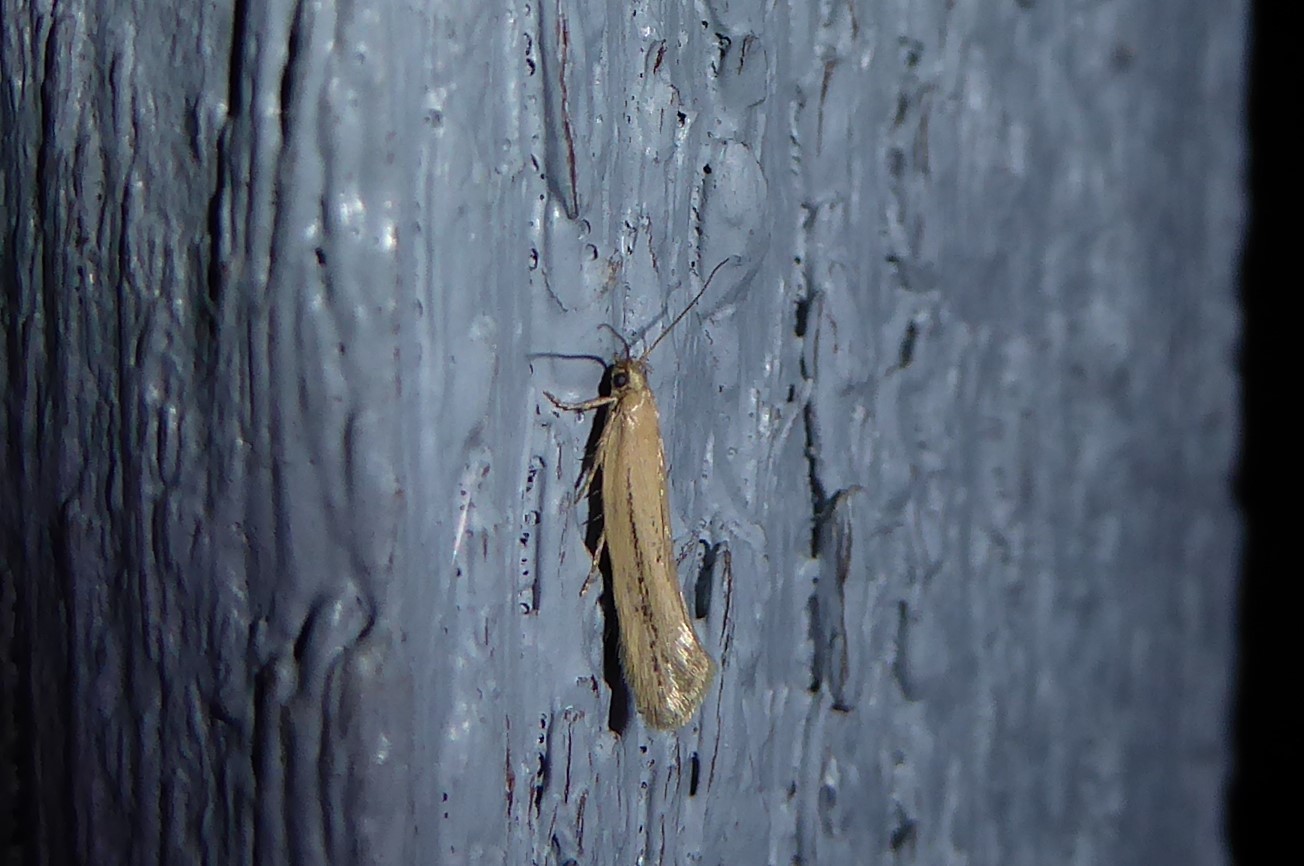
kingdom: Animalia
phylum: Arthropoda
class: Insecta
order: Lepidoptera
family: Oecophoridae
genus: Tingena
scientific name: Tingena maranta
